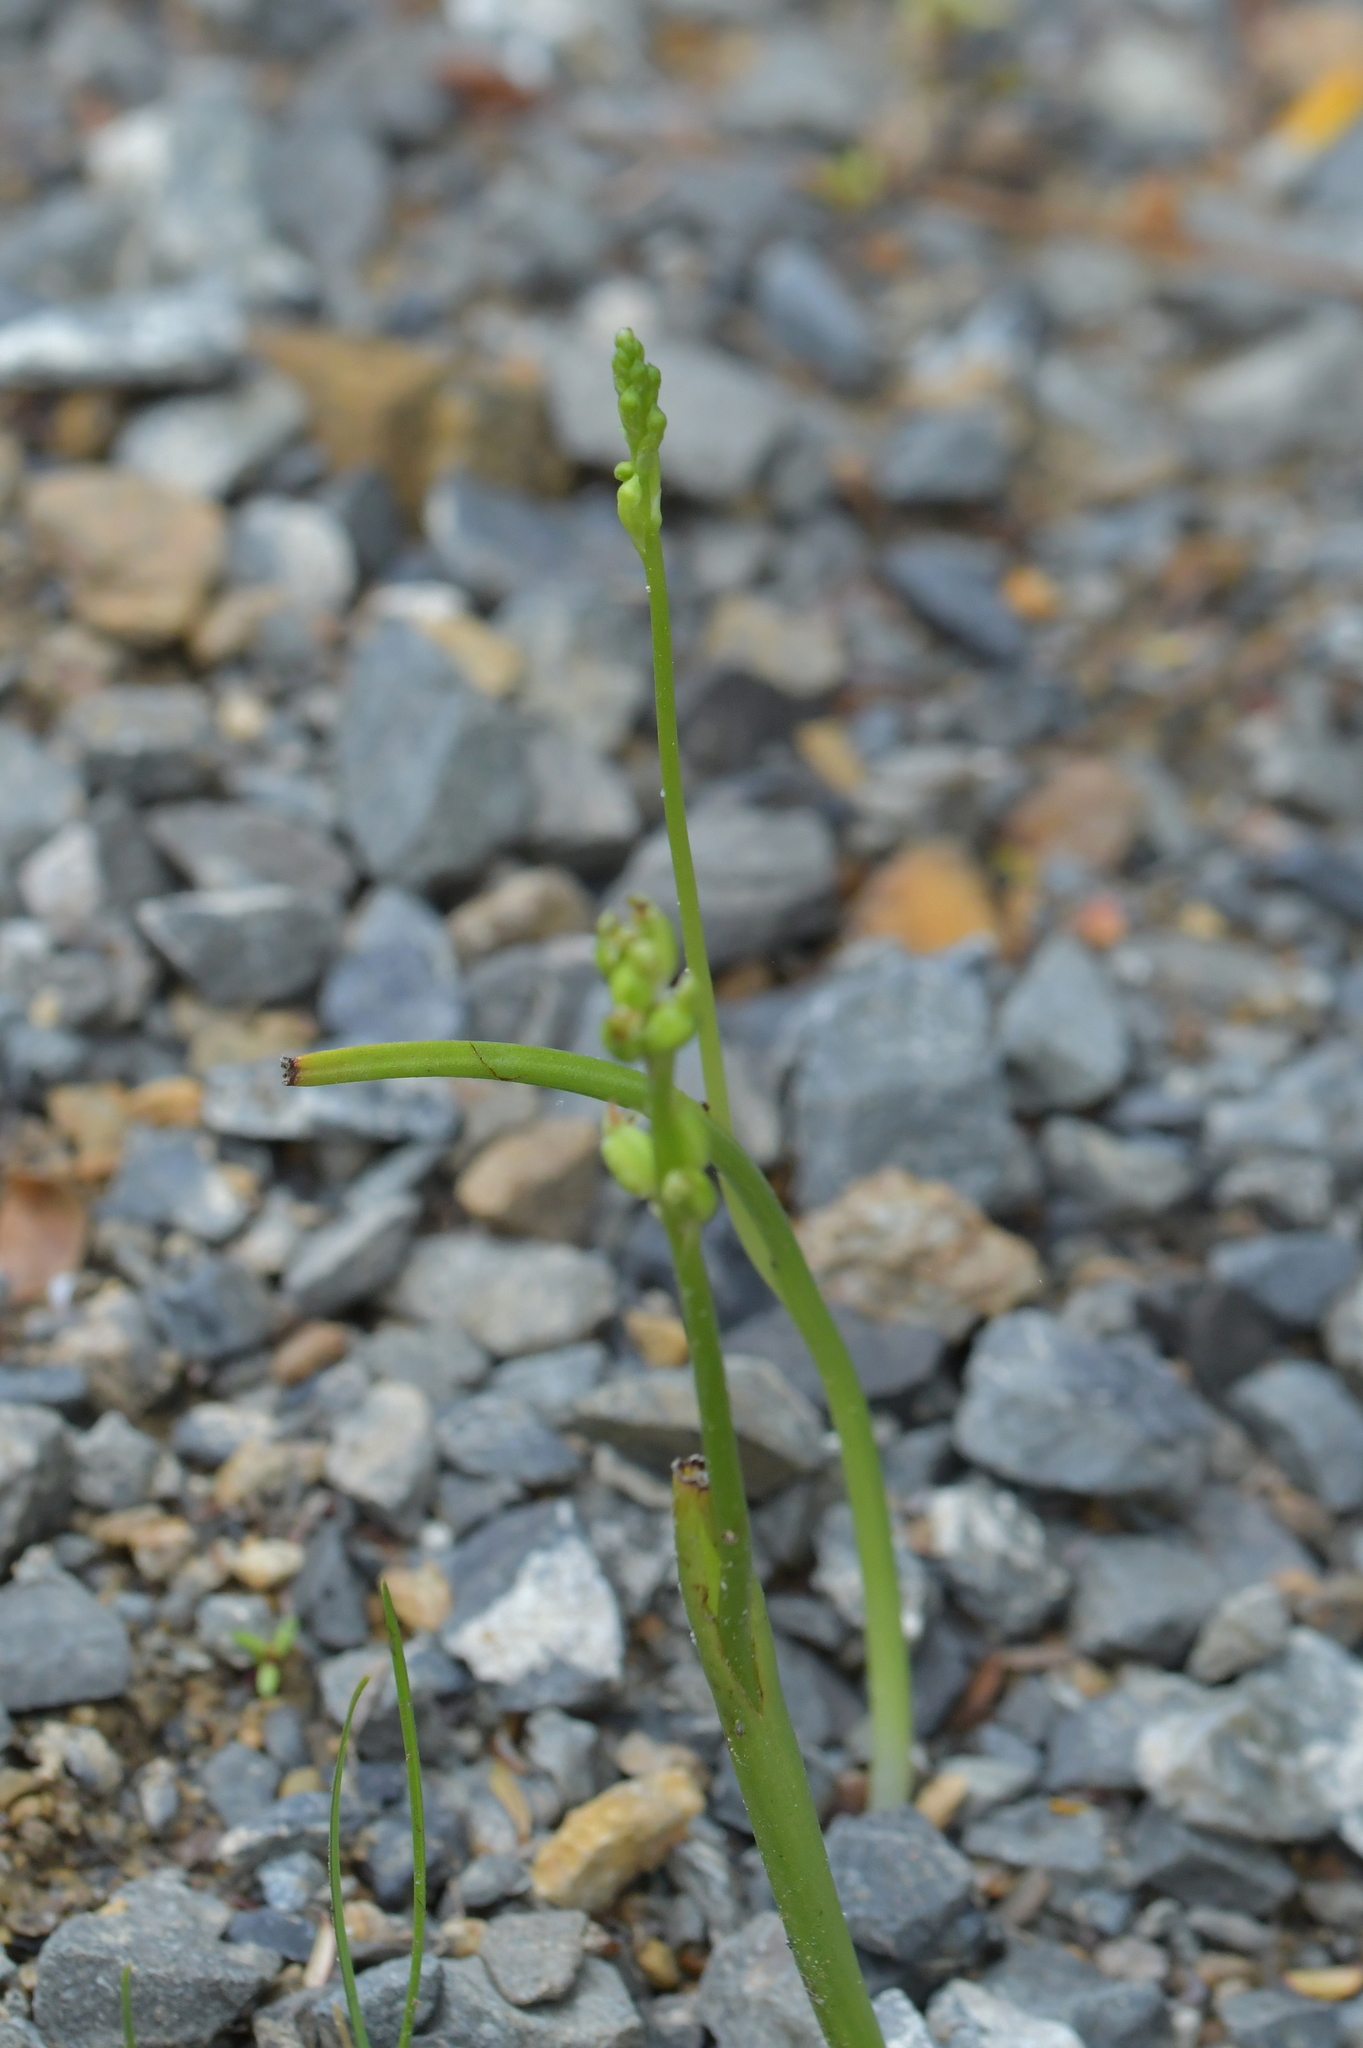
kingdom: Plantae
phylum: Tracheophyta
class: Liliopsida
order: Asparagales
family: Orchidaceae
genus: Microtis
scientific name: Microtis unifolia
